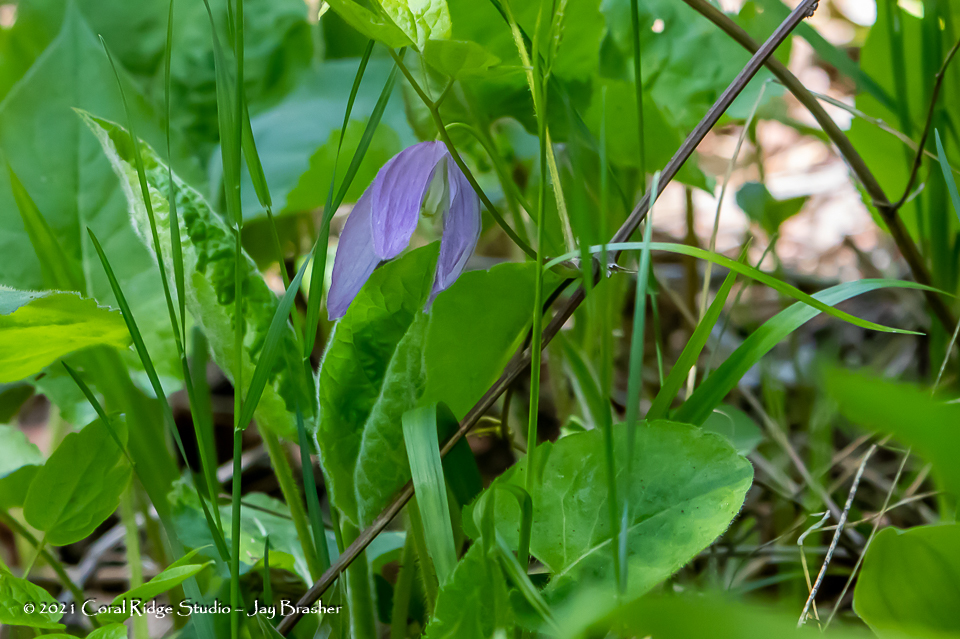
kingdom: Plantae
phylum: Tracheophyta
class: Magnoliopsida
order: Ranunculales
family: Ranunculaceae
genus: Clematis
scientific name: Clematis occidentalis
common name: Purple clematis
